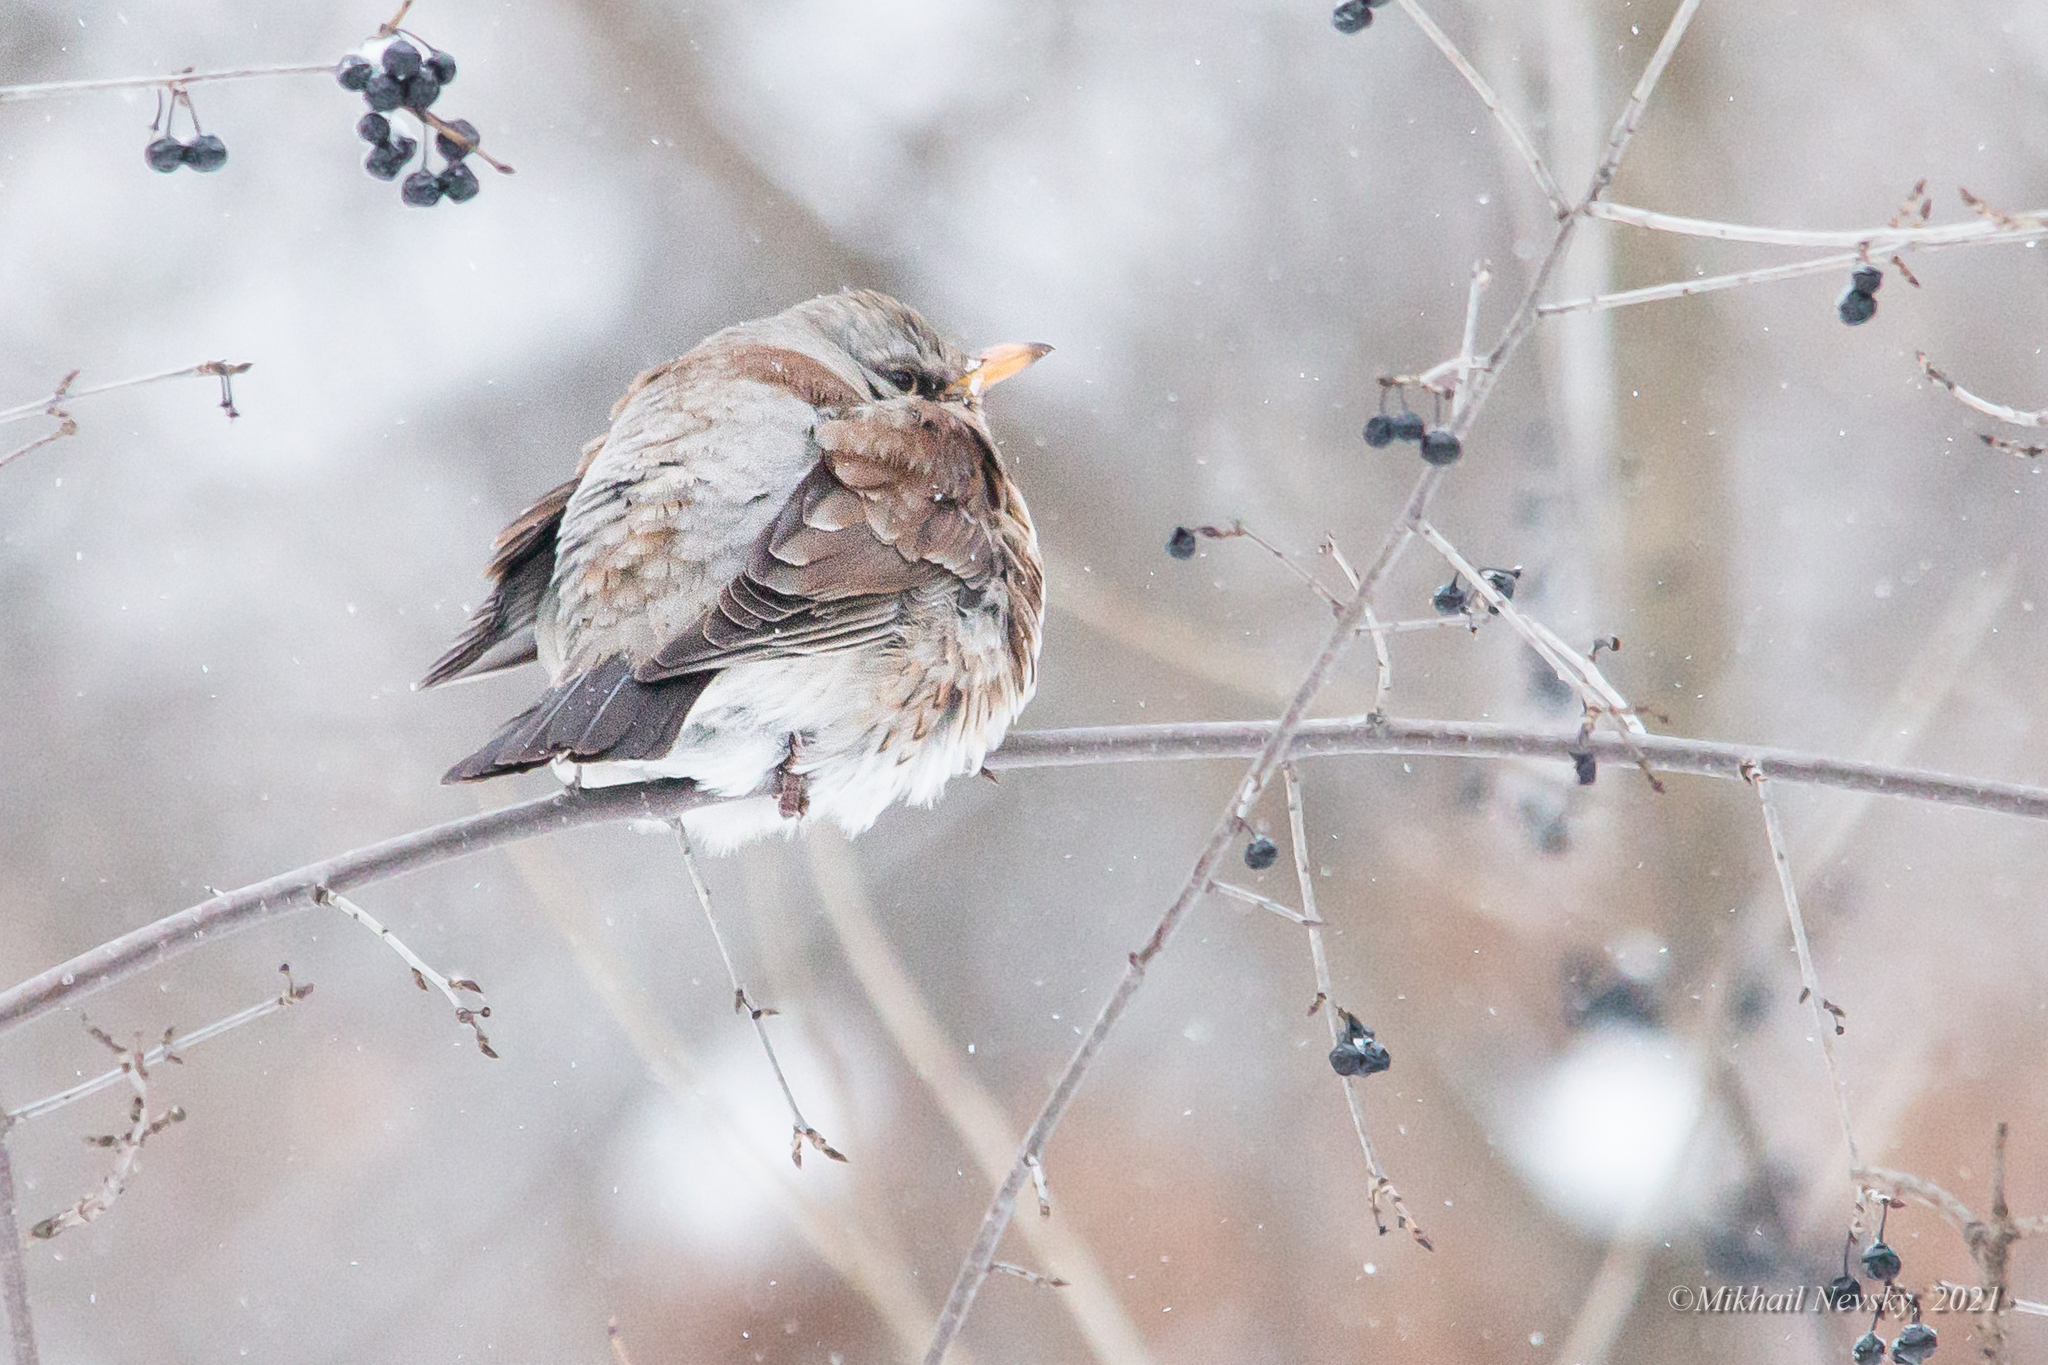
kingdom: Animalia
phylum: Chordata
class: Aves
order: Passeriformes
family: Turdidae
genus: Turdus
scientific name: Turdus pilaris
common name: Fieldfare
